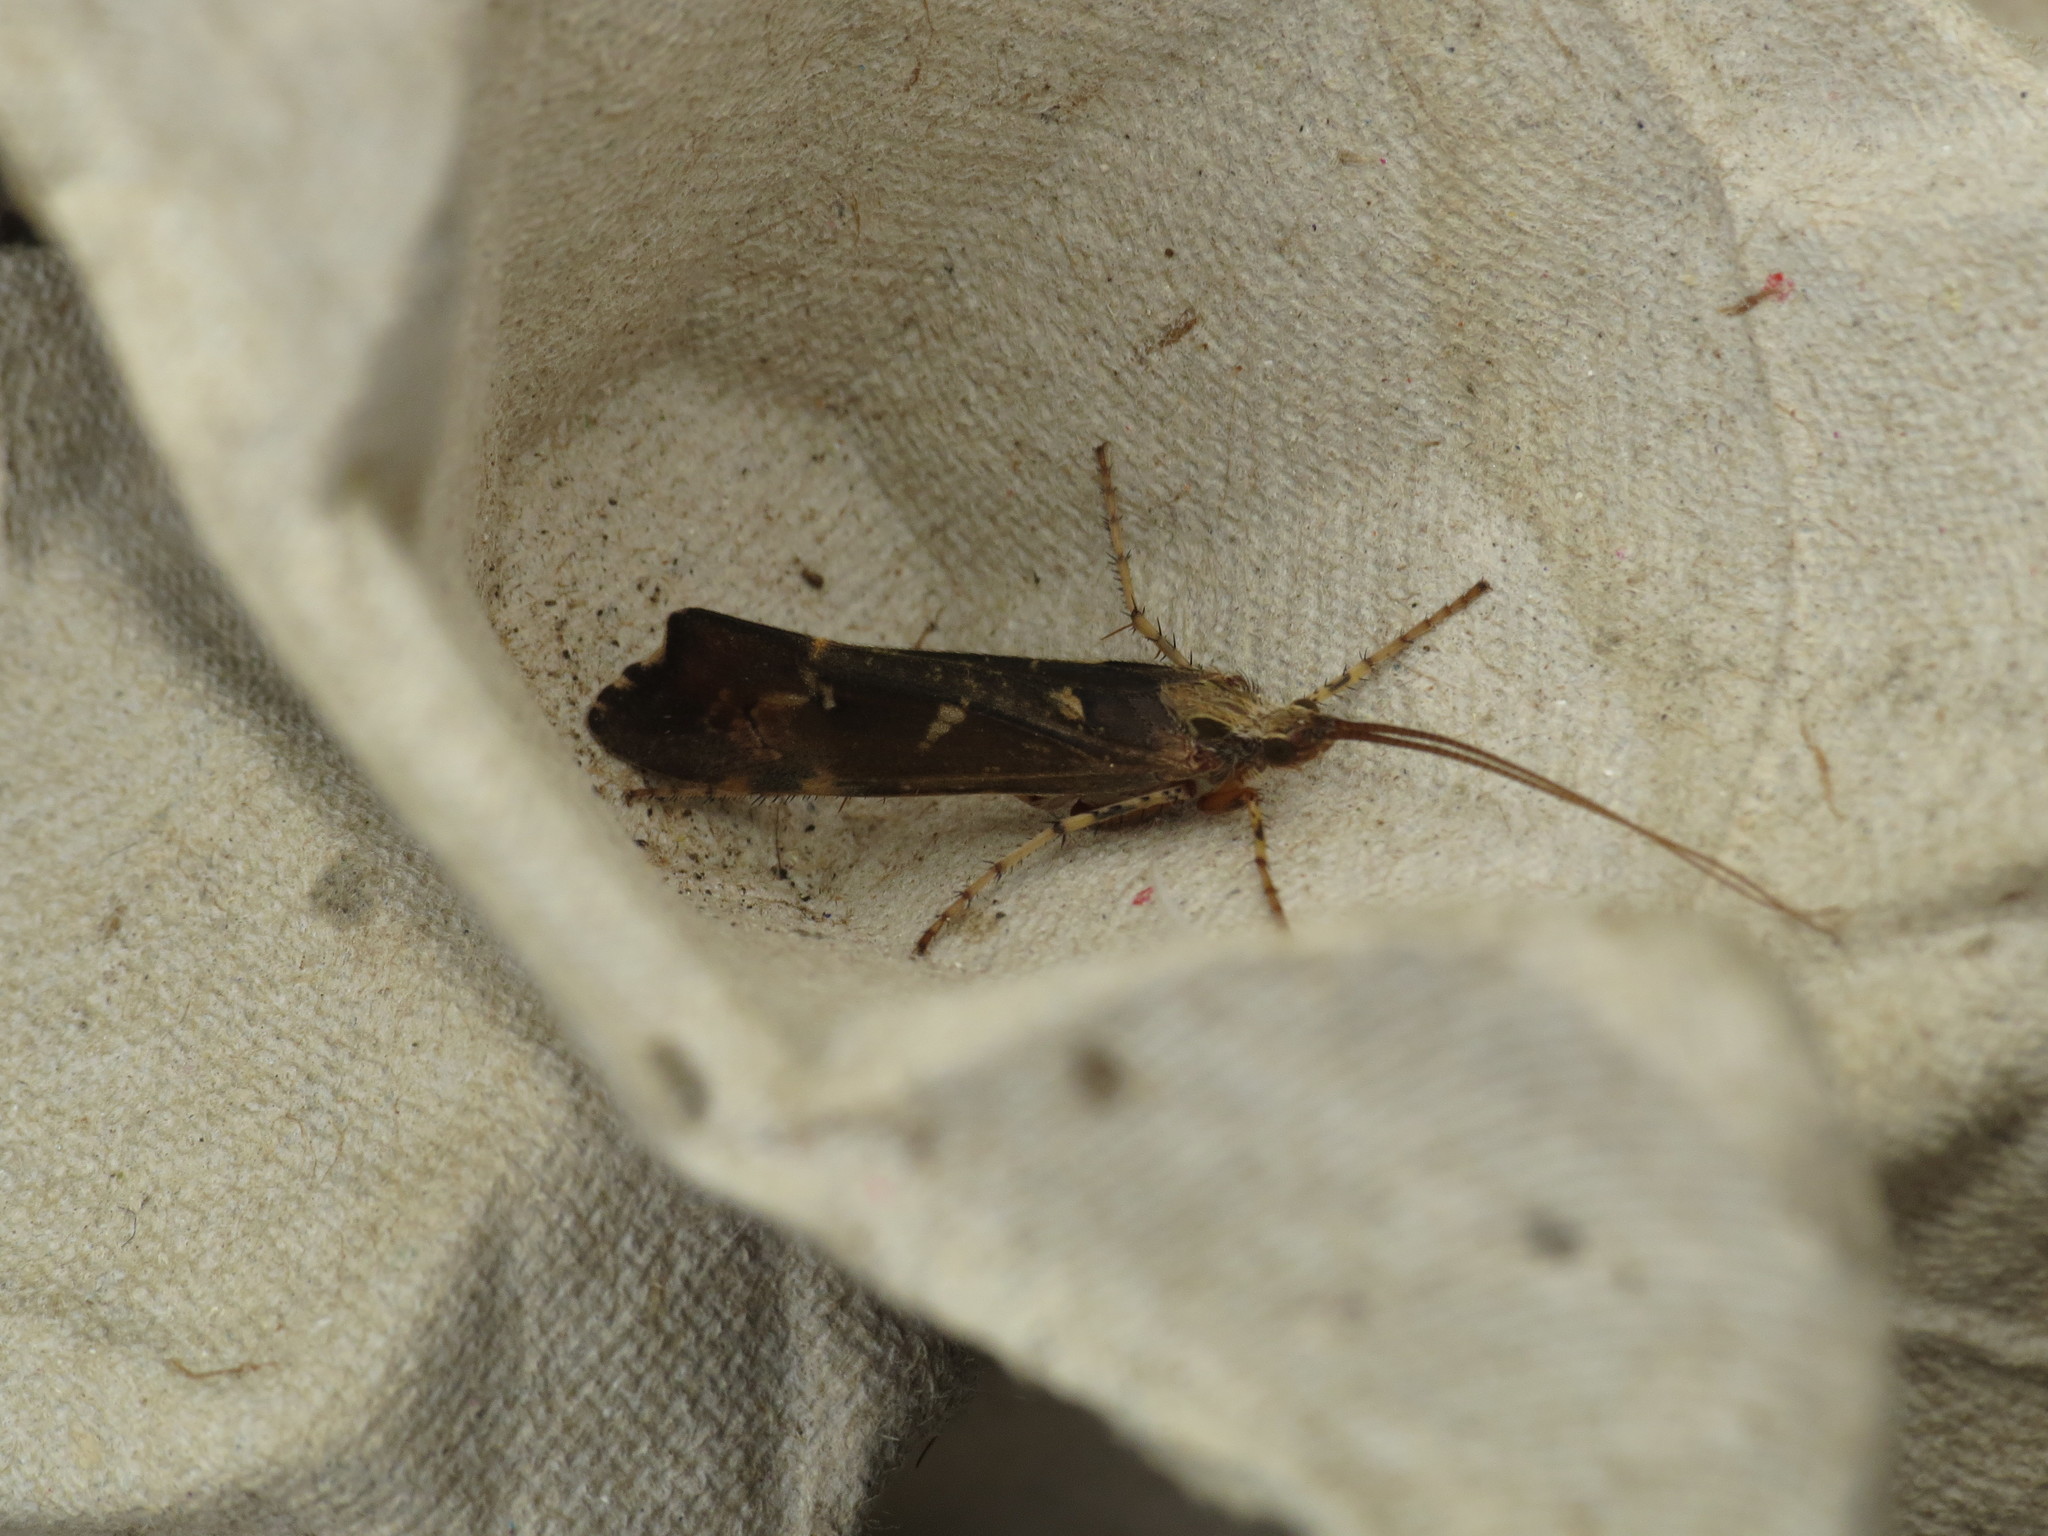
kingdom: Animalia
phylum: Arthropoda
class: Insecta
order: Trichoptera
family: Limnephilidae
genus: Glyphotaelius
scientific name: Glyphotaelius pellucidus
